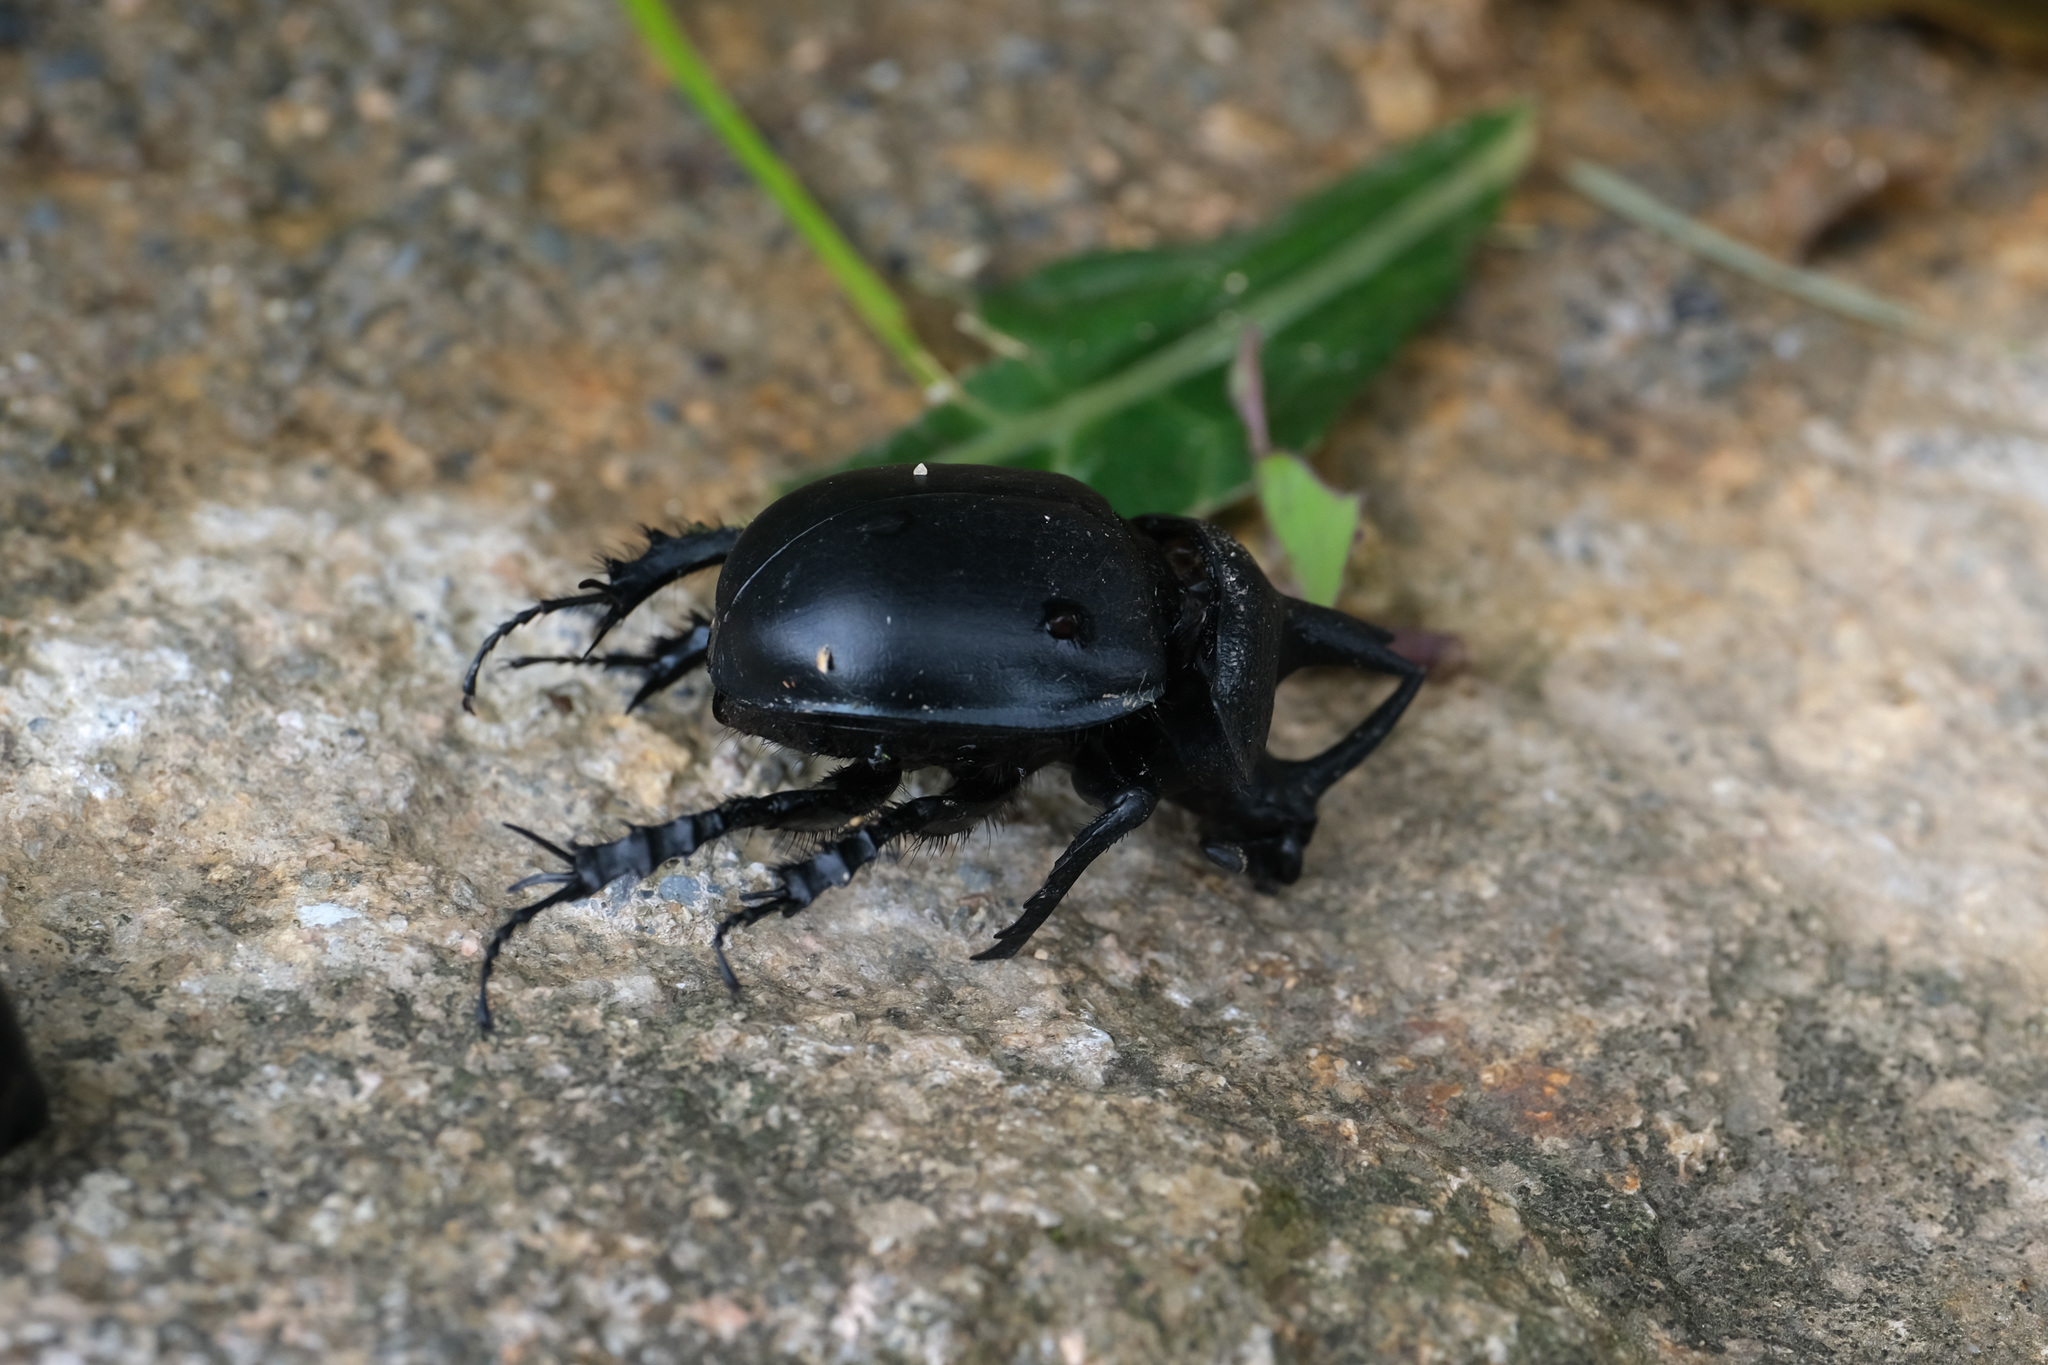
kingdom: Animalia
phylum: Arthropoda
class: Insecta
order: Coleoptera
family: Geotrupidae
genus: Enoplotrupes
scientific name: Enoplotrupes sinensis
